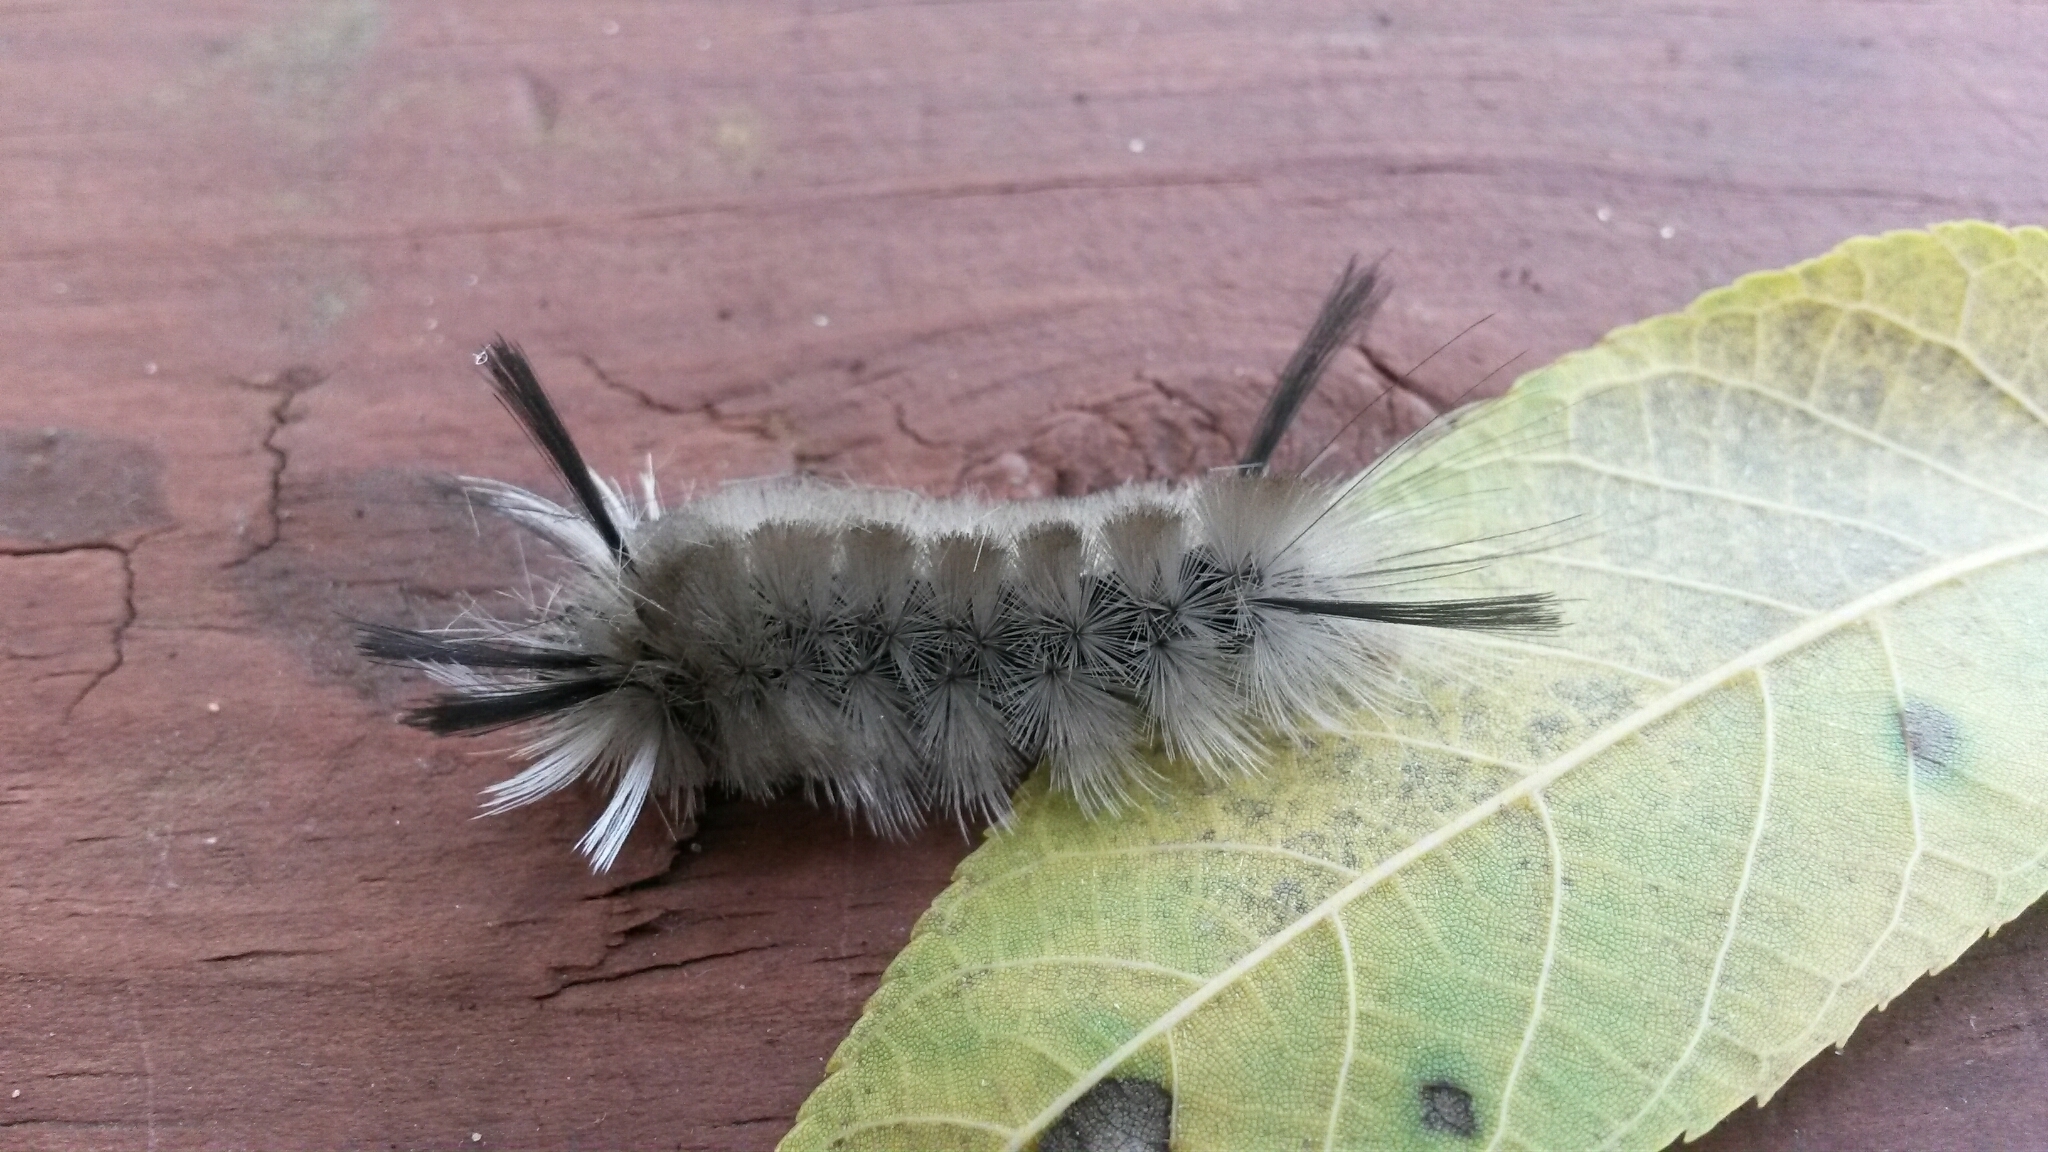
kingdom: Animalia
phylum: Arthropoda
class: Insecta
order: Lepidoptera
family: Erebidae
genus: Halysidota
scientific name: Halysidota tessellaris
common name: Banded tussock moth
